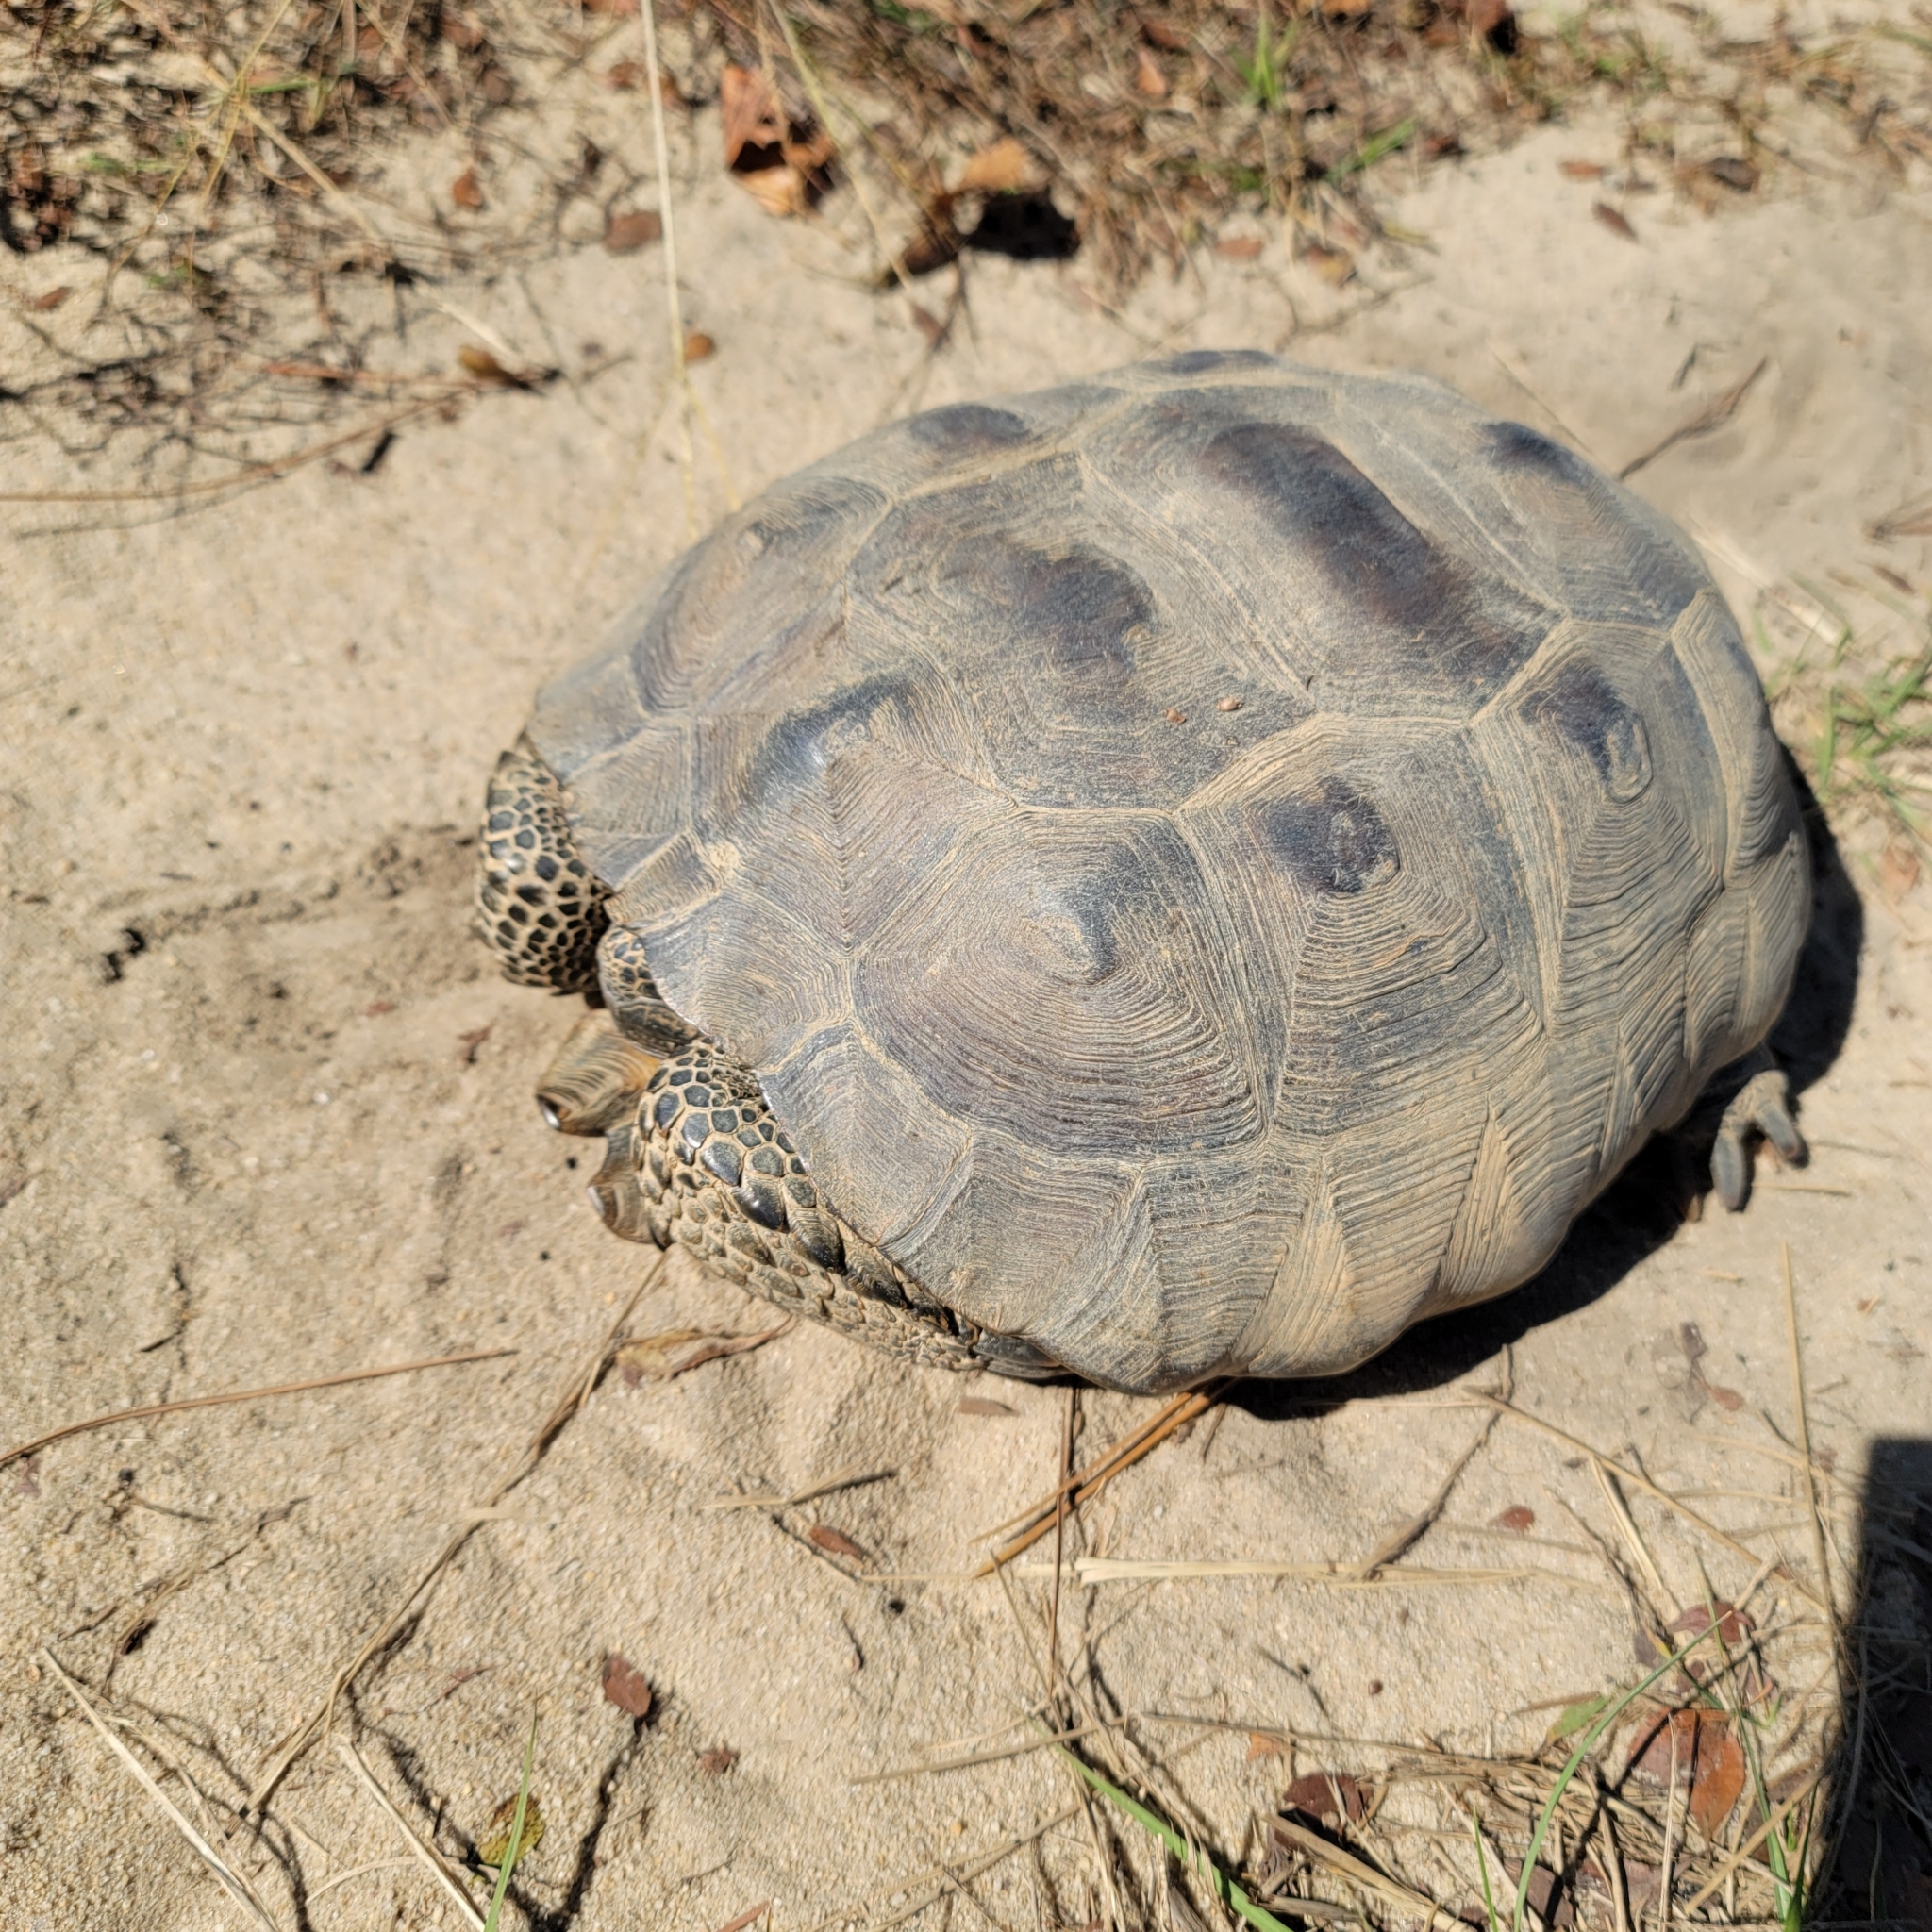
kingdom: Animalia
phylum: Chordata
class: Testudines
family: Testudinidae
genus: Gopherus
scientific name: Gopherus polyphemus
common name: Florida gopher tortoise
